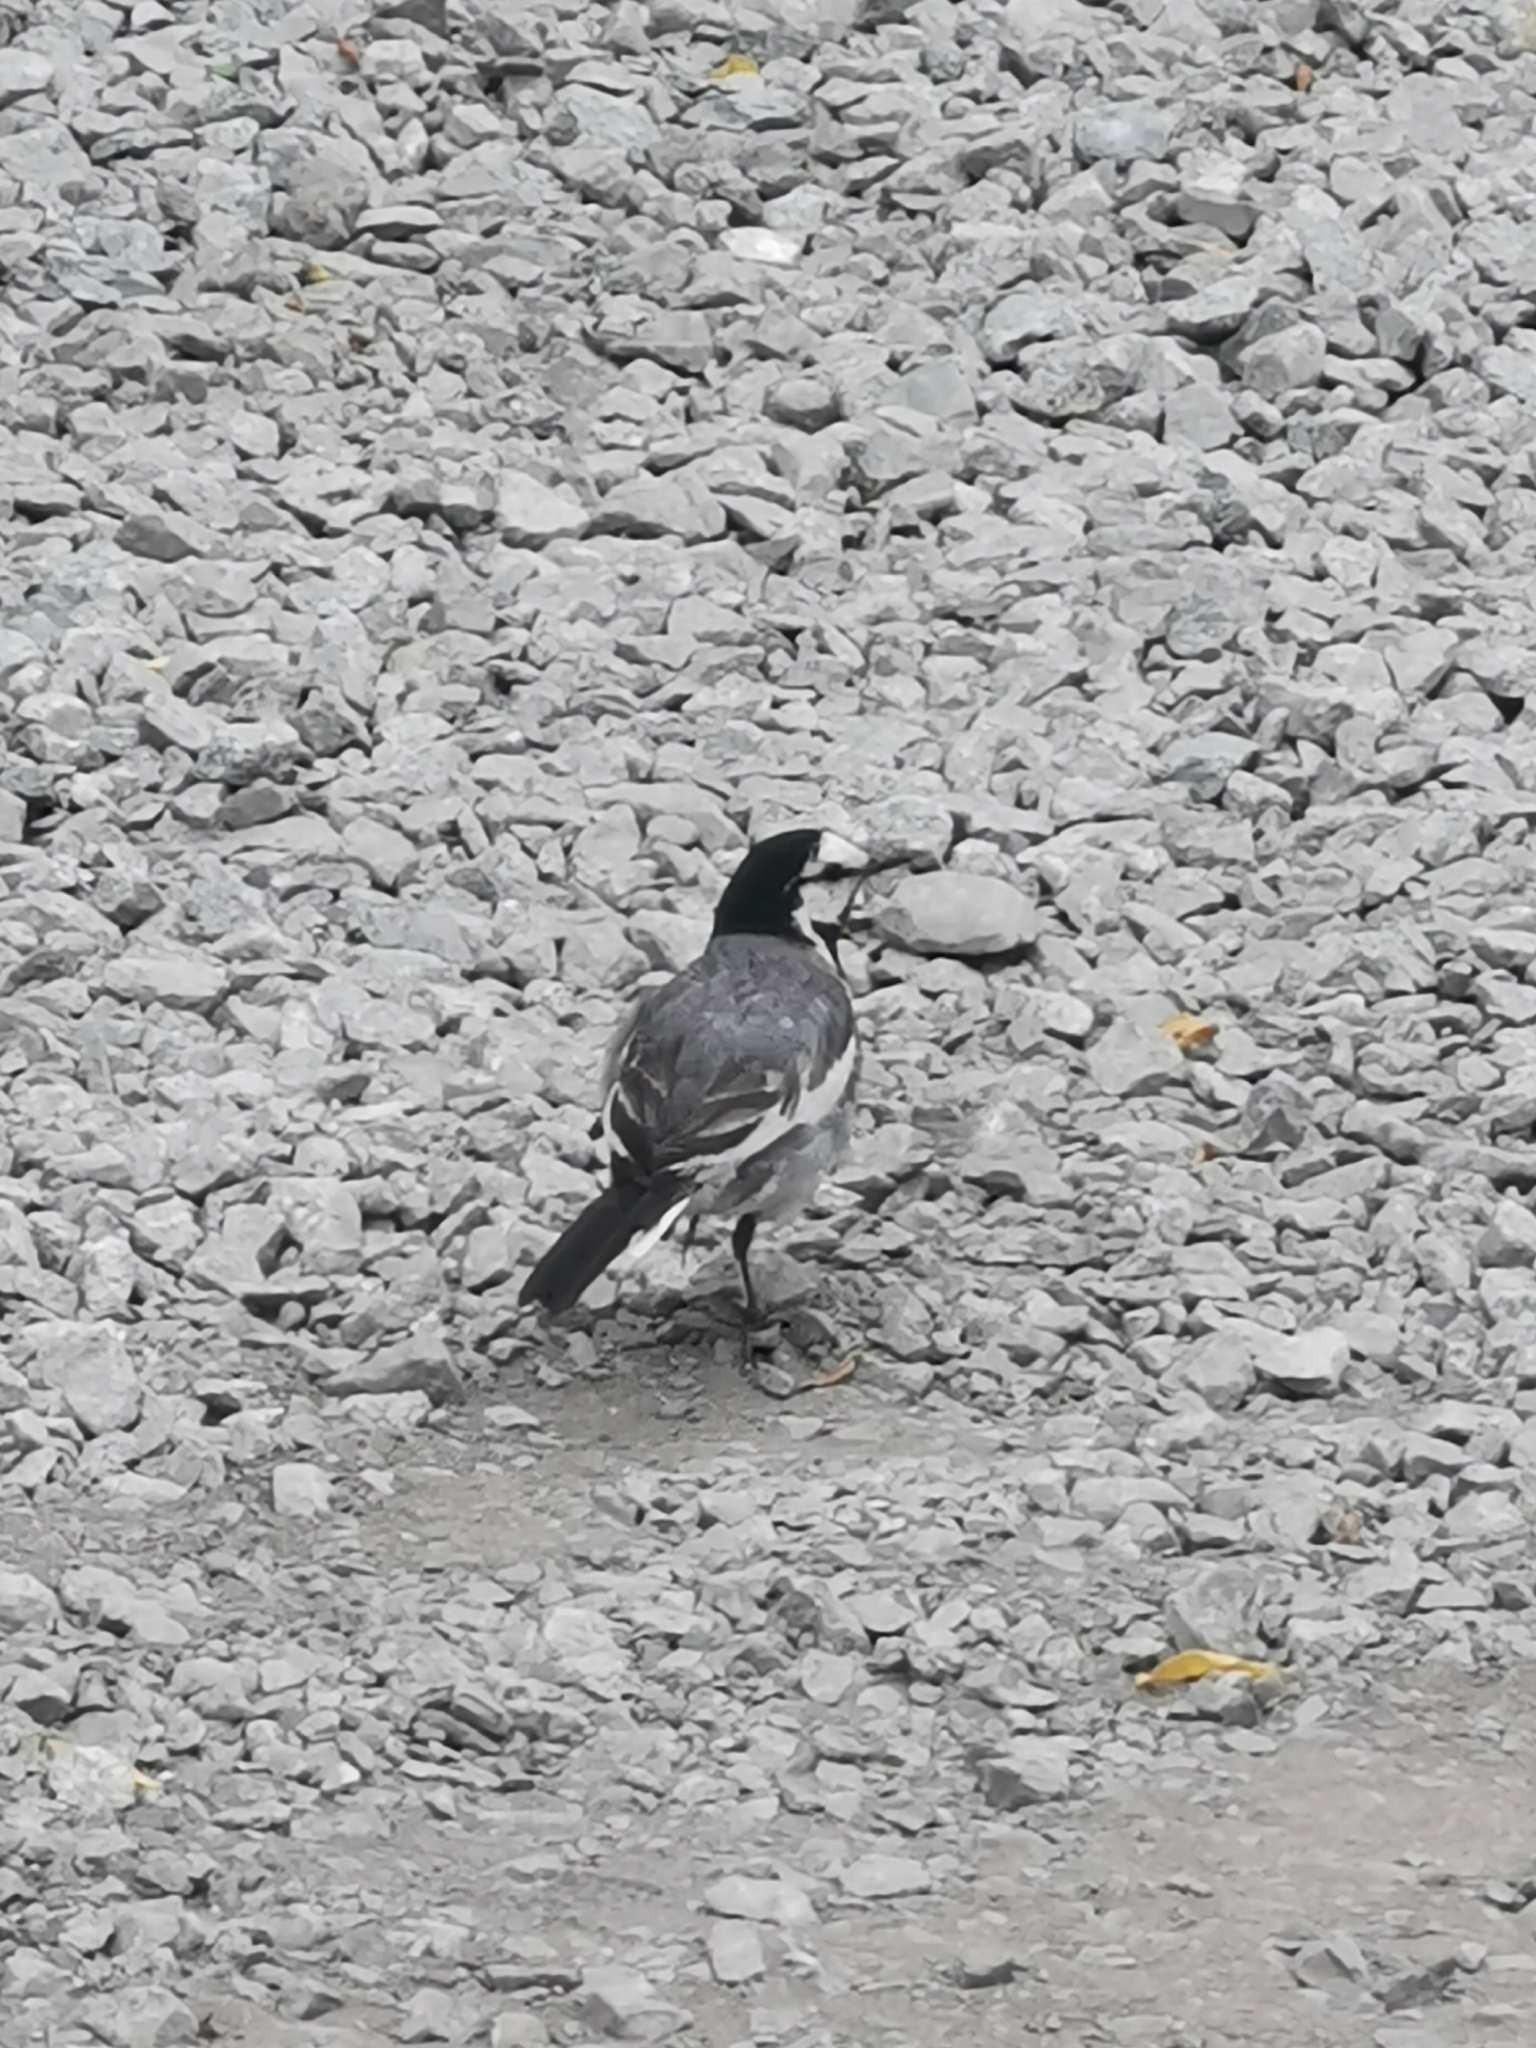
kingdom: Animalia
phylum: Chordata
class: Aves
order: Passeriformes
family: Motacillidae
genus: Motacilla
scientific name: Motacilla alba
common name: White wagtail
